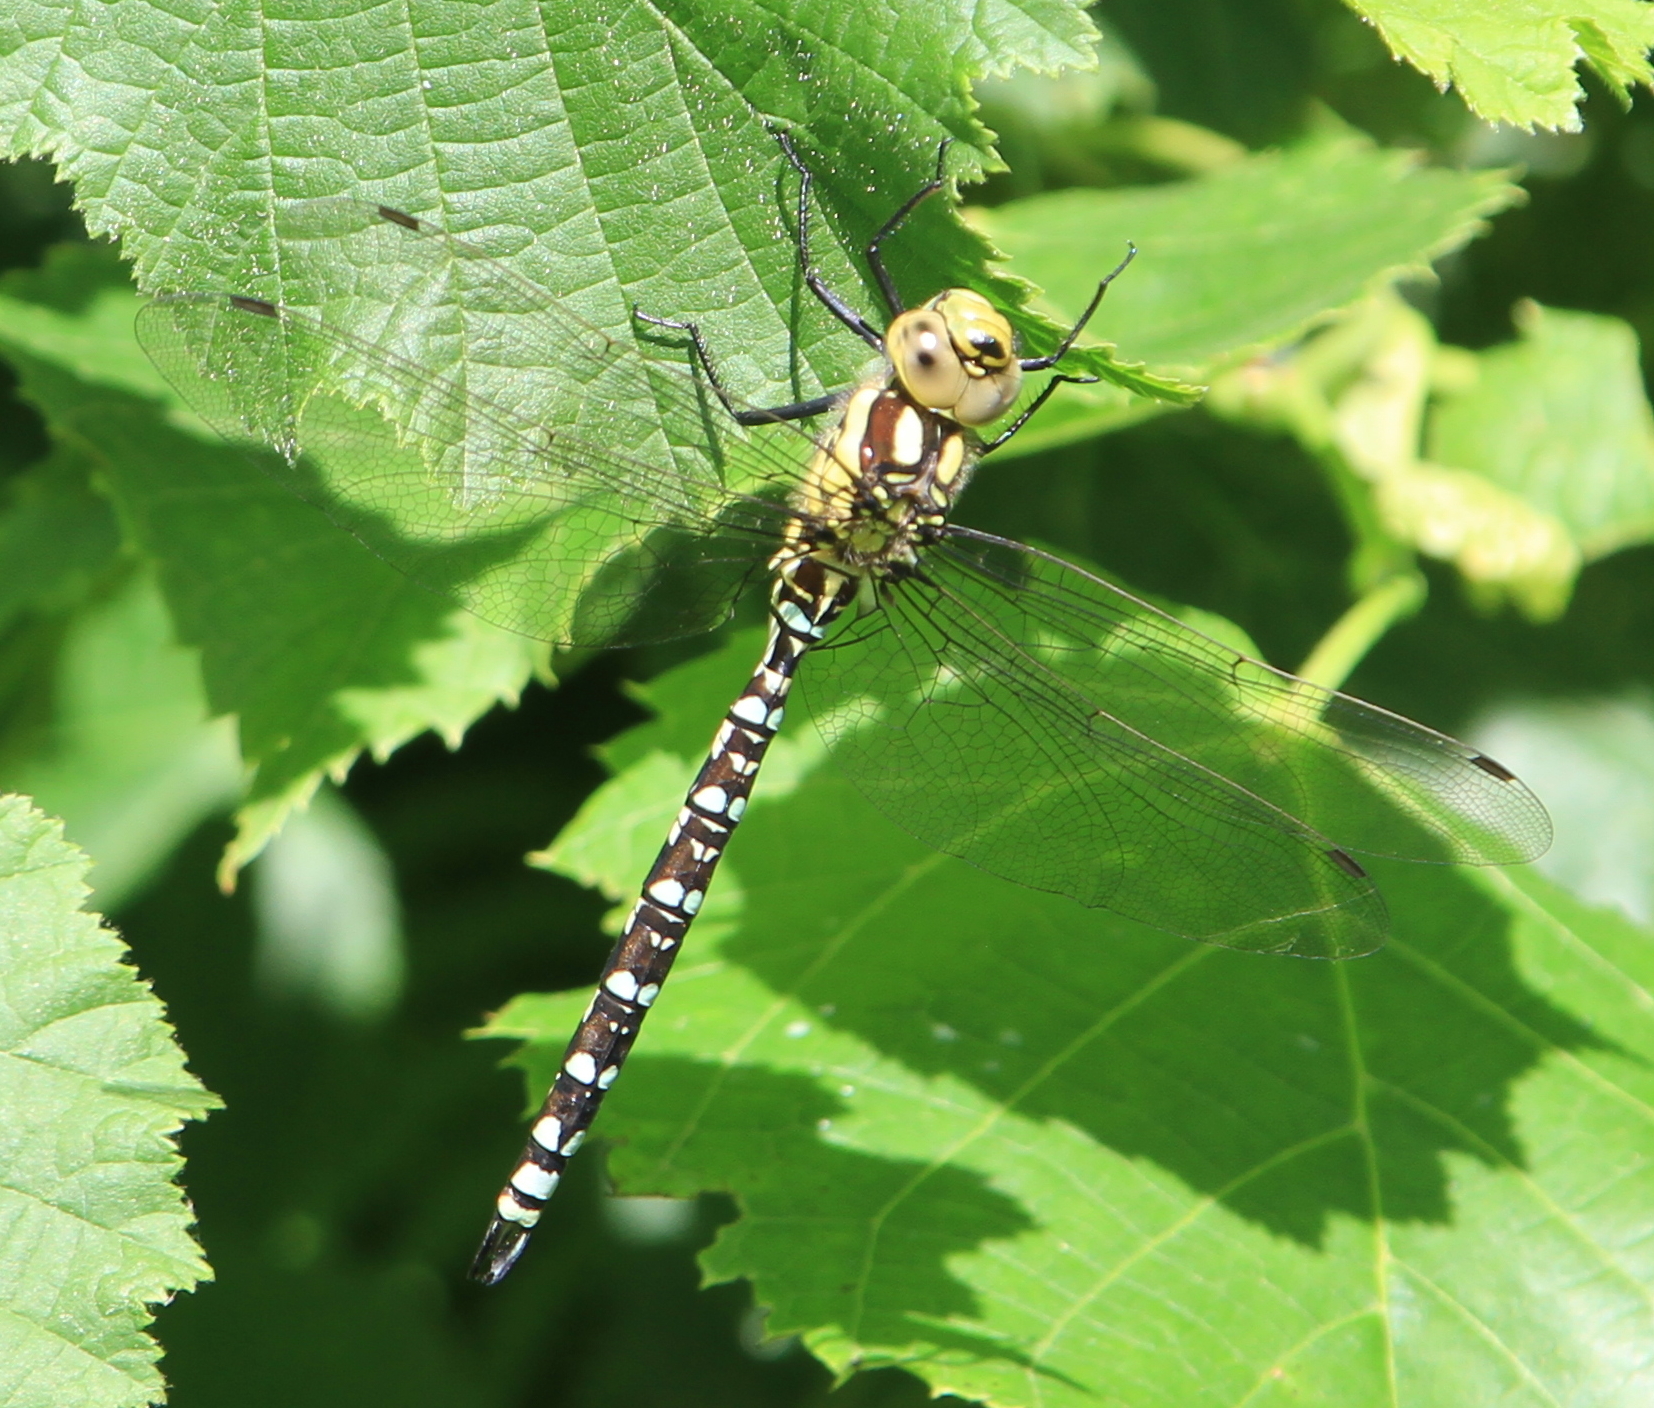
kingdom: Animalia
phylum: Arthropoda
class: Insecta
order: Odonata
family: Aeshnidae
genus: Aeshna
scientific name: Aeshna cyanea
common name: Southern hawker
